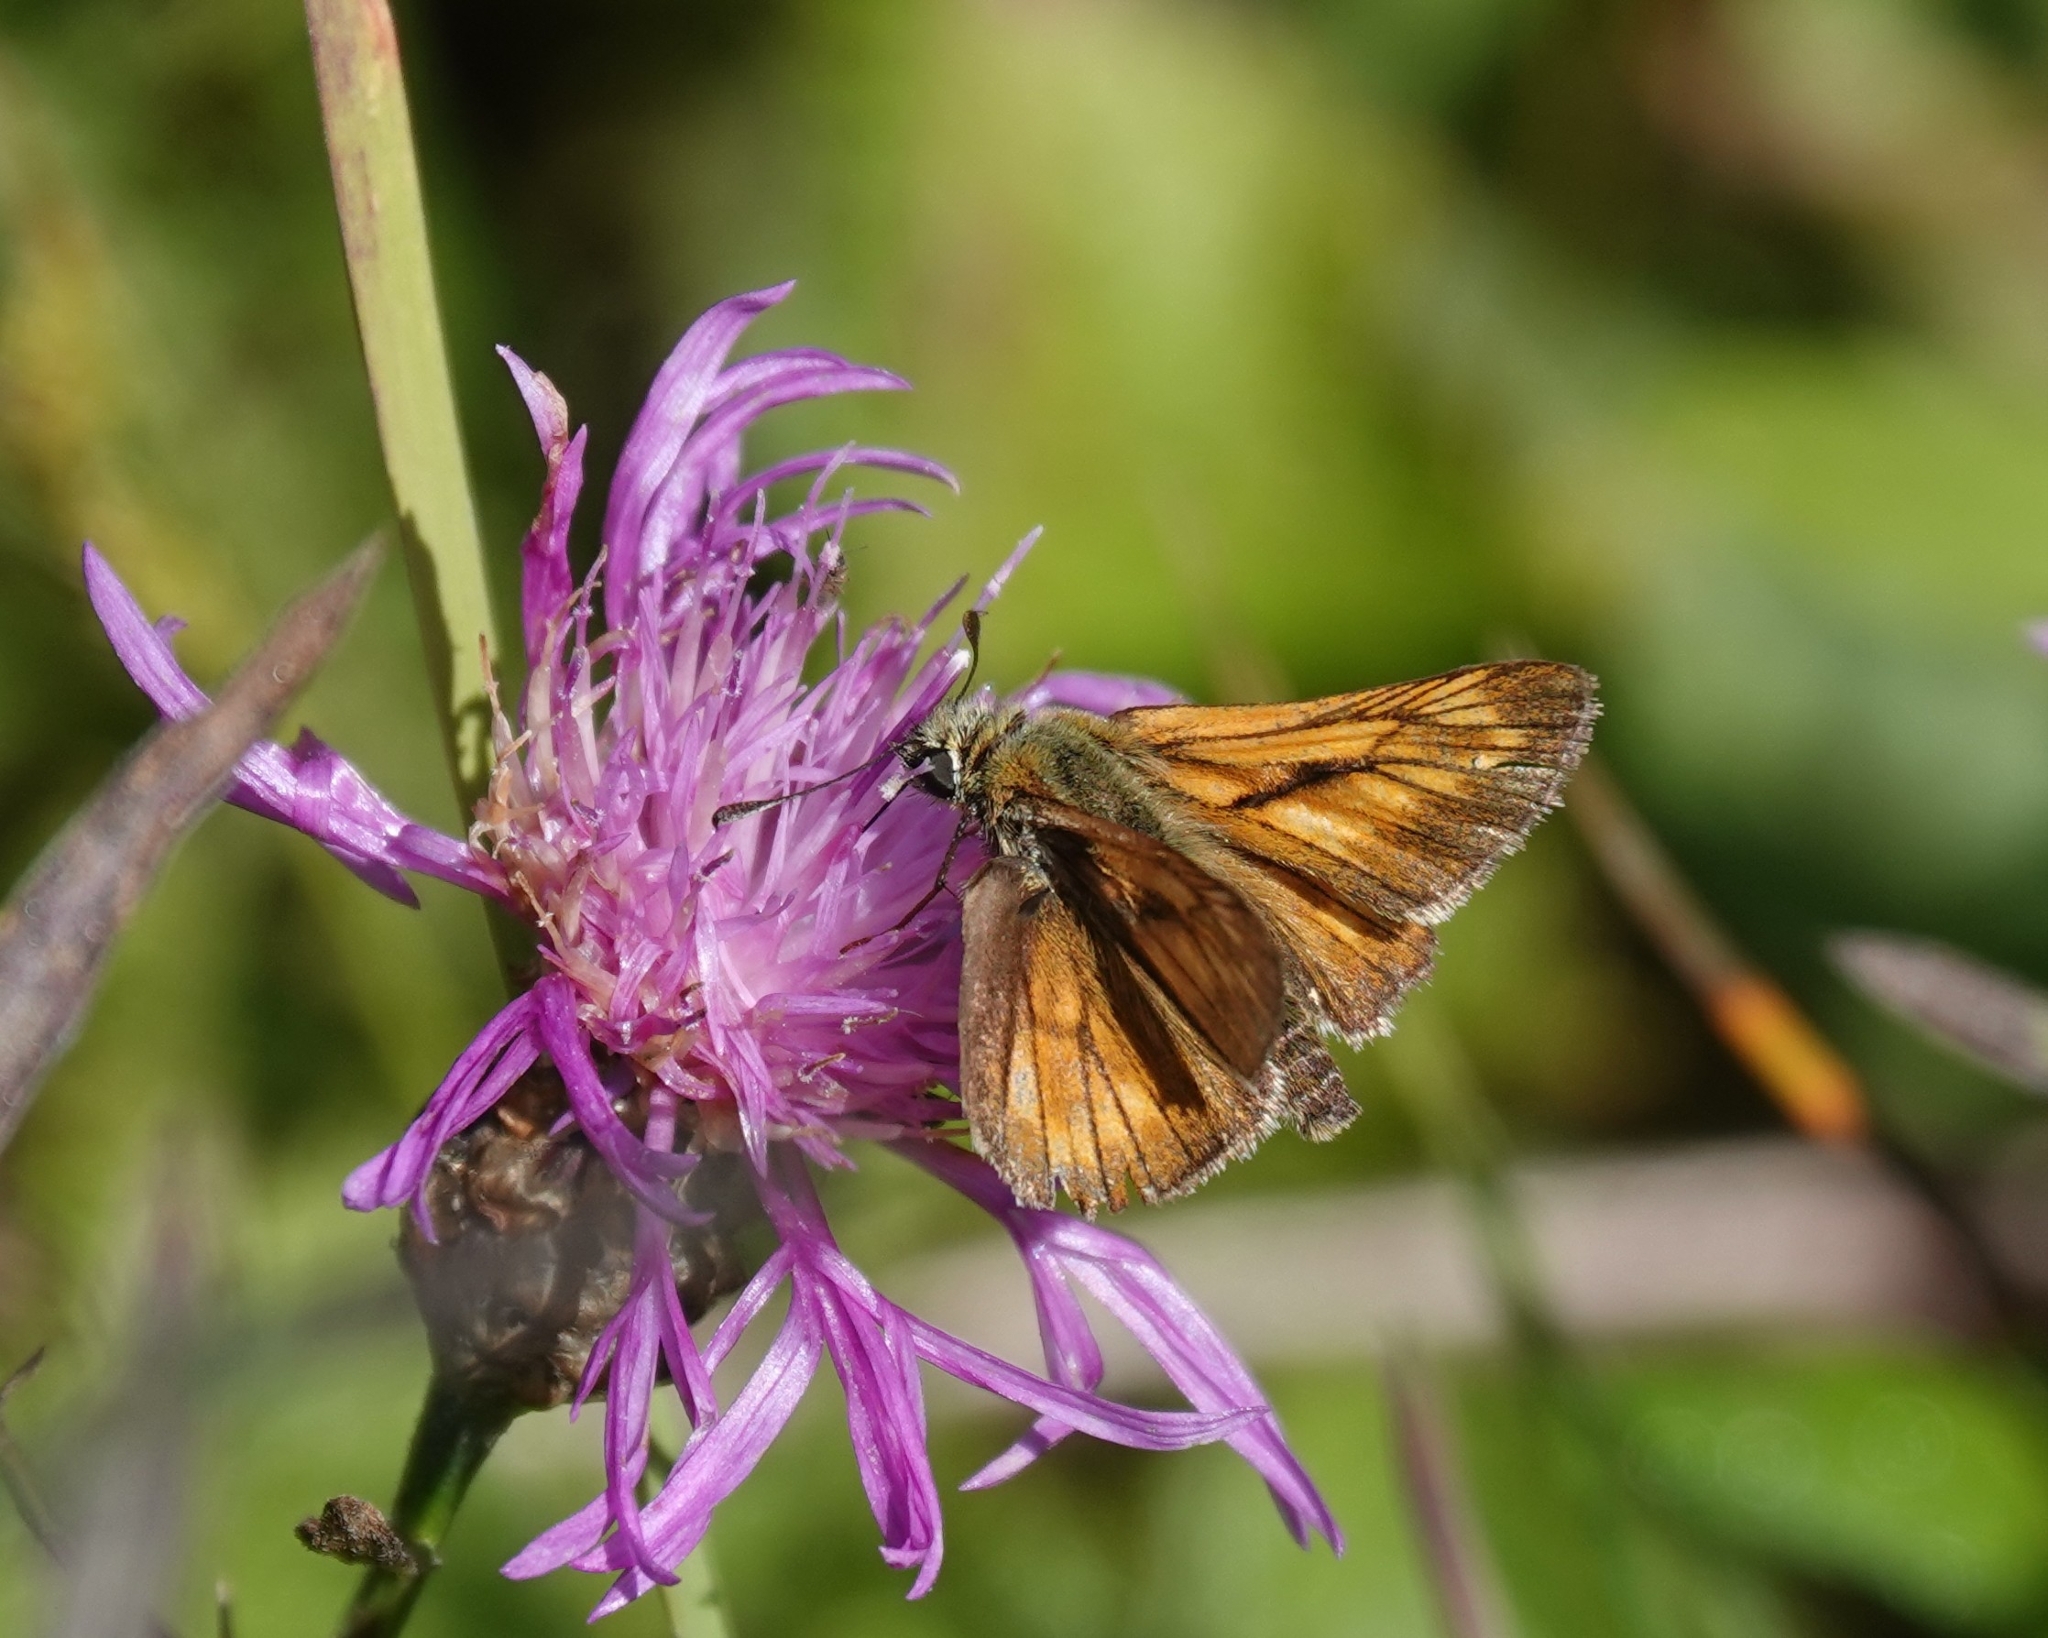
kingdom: Animalia
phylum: Arthropoda
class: Insecta
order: Lepidoptera
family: Hesperiidae
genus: Ochlodes
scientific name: Ochlodes venata
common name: Large skipper
